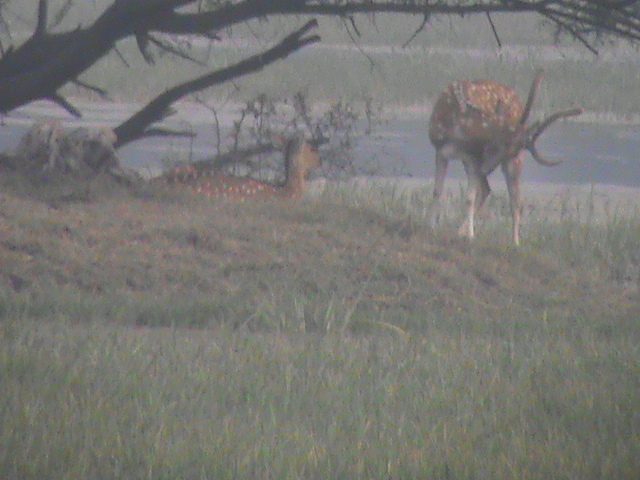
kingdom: Animalia
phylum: Chordata
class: Mammalia
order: Artiodactyla
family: Cervidae
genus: Axis
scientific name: Axis axis
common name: Chital
